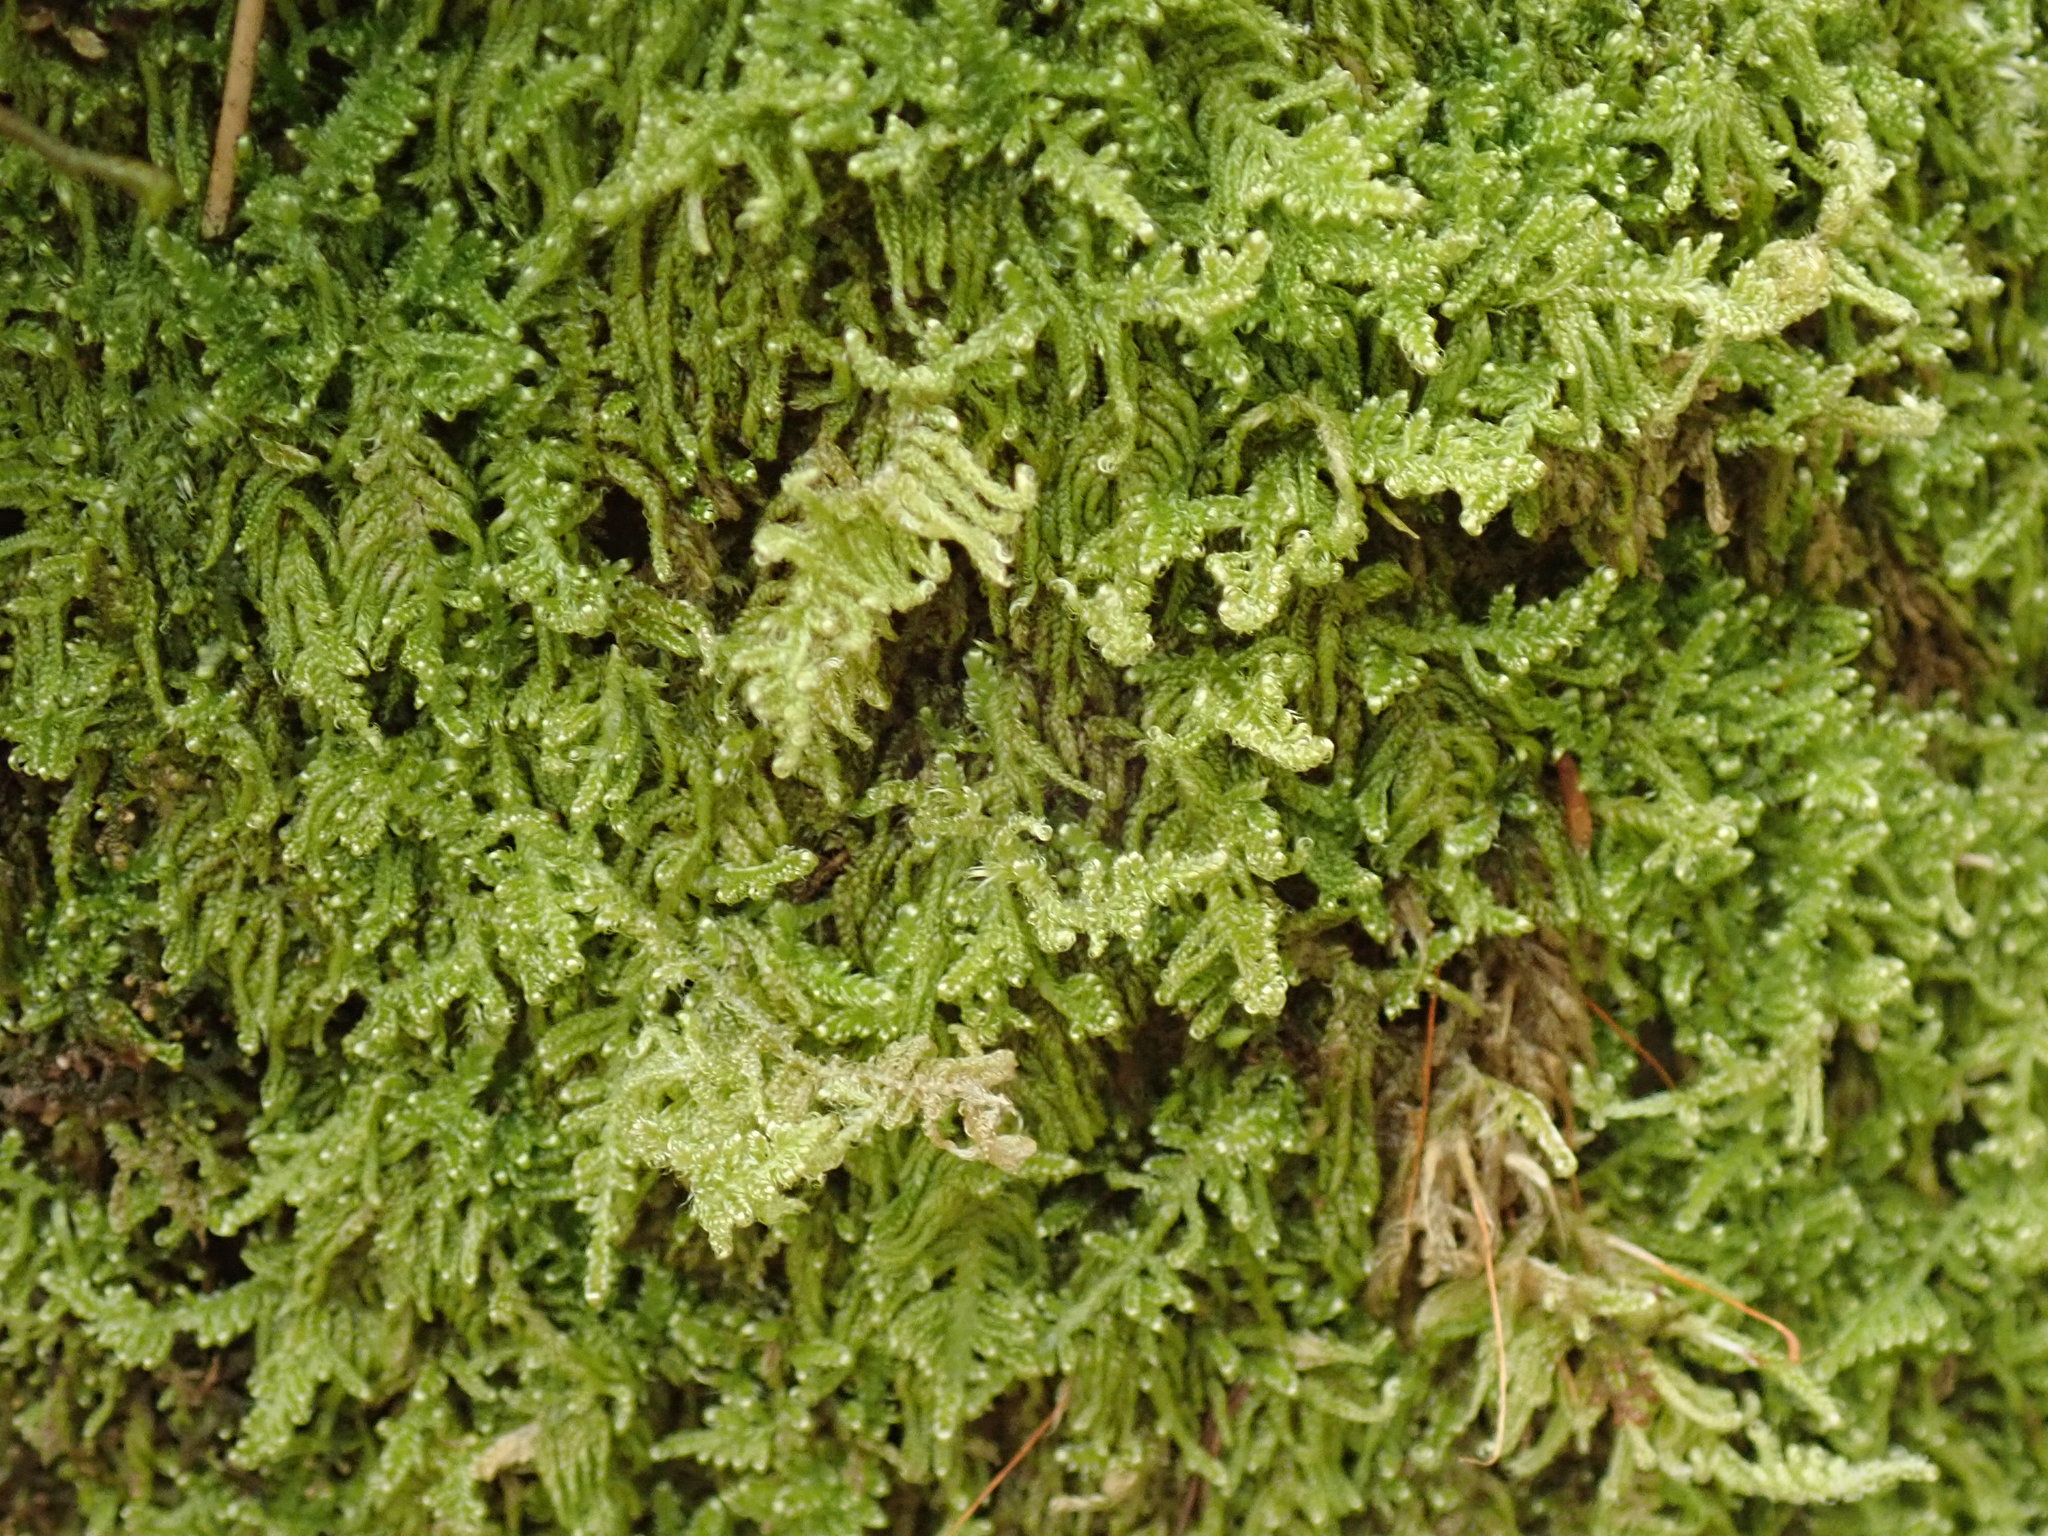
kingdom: Plantae
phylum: Bryophyta
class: Bryopsida
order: Hypnales
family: Stereodontaceae
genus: Stereodon
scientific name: Stereodon subimponens
